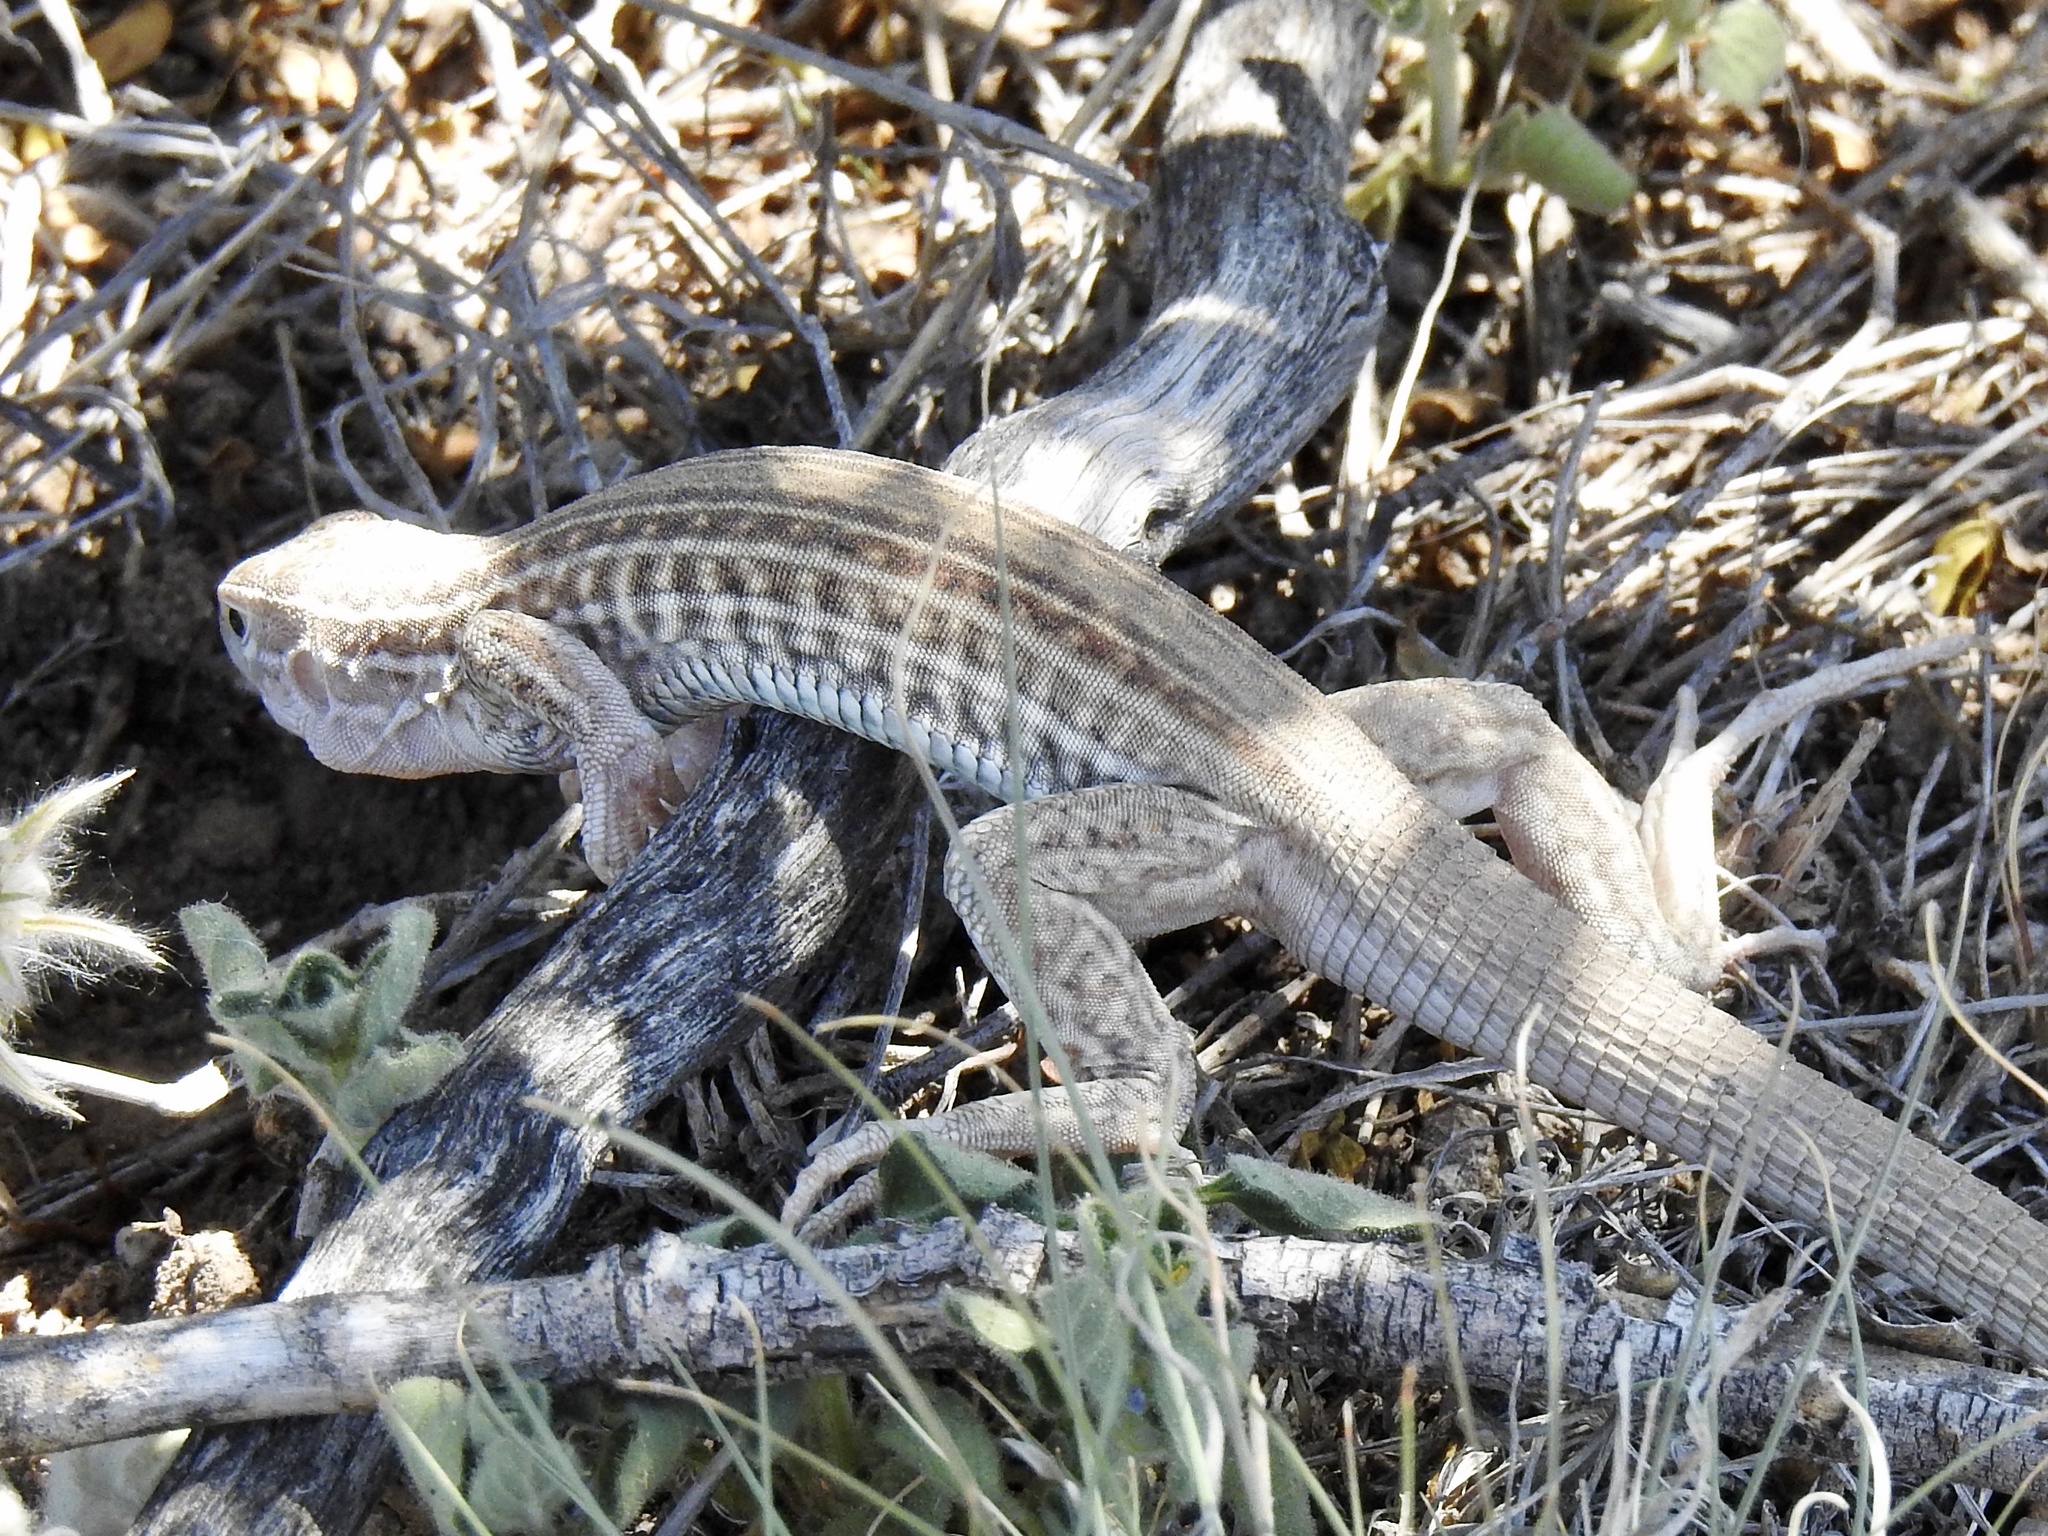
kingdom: Animalia
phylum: Chordata
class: Squamata
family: Teiidae
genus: Aspidoscelis
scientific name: Aspidoscelis exsanguis
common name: Chihuahuan spotted whiptail
